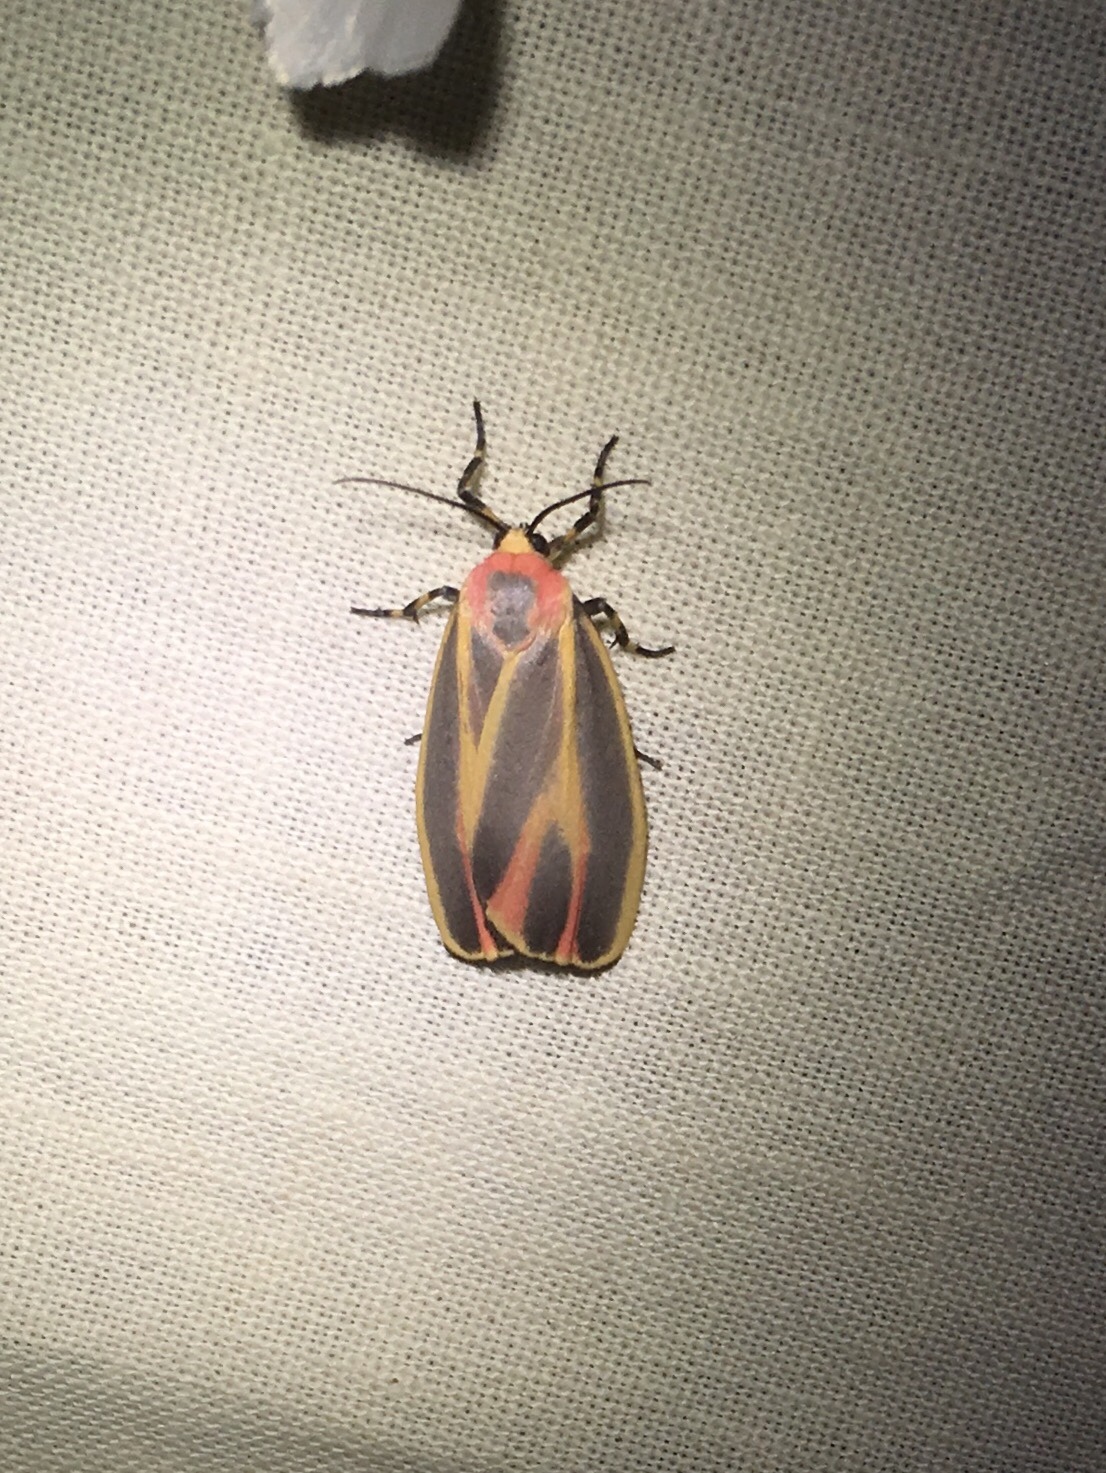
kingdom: Animalia
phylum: Arthropoda
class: Insecta
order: Lepidoptera
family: Erebidae
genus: Hypoprepia
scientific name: Hypoprepia fucosa
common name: Painted lichen moth
